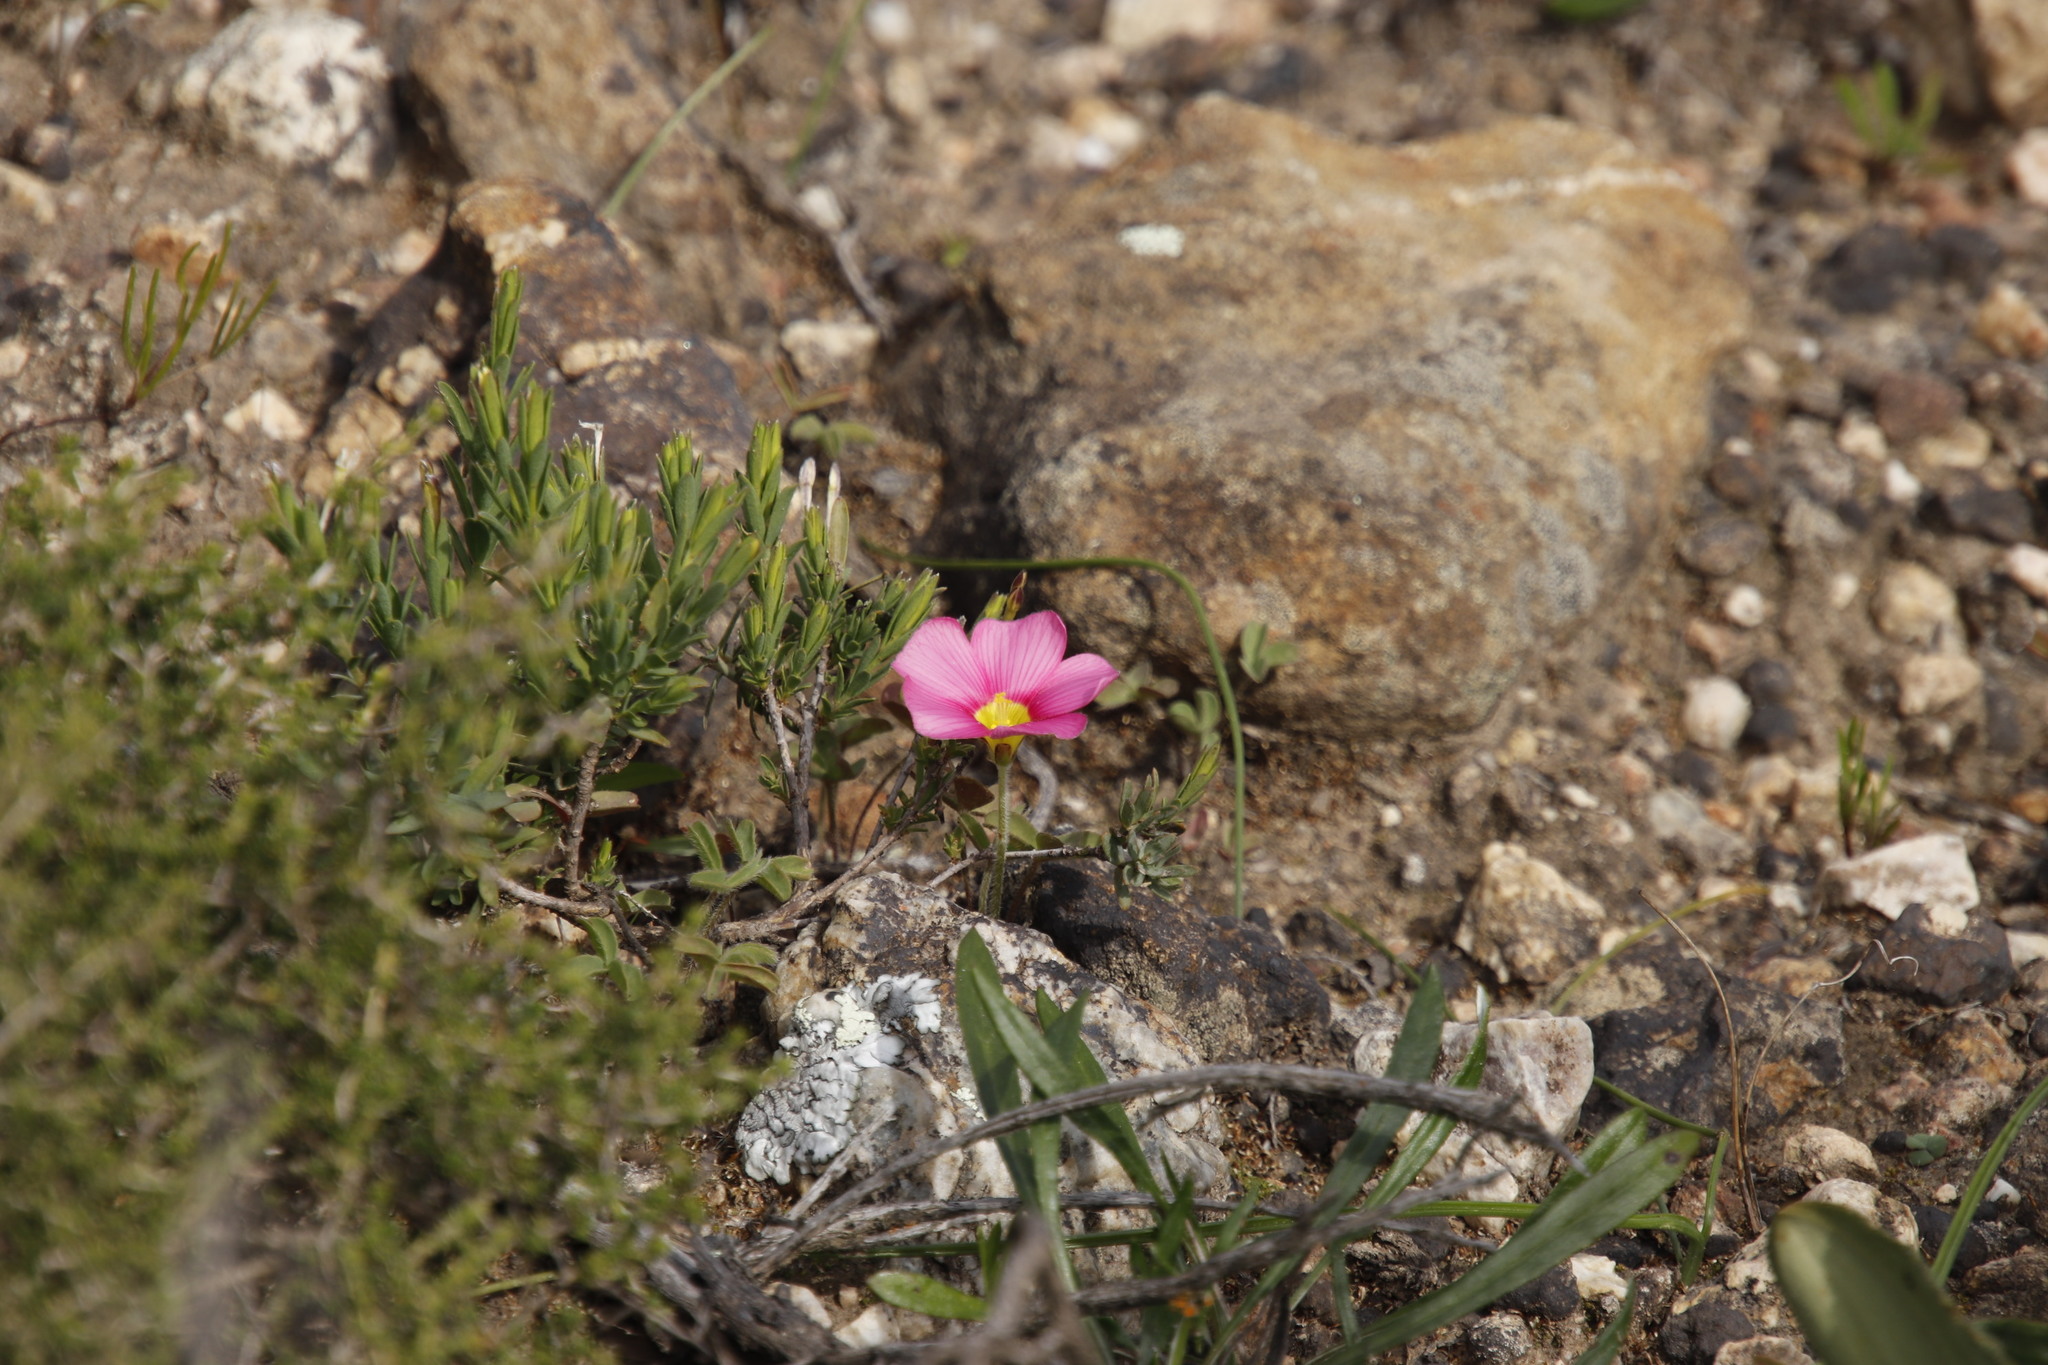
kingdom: Plantae
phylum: Tracheophyta
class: Magnoliopsida
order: Oxalidales
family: Oxalidaceae
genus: Oxalis
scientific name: Oxalis obtusa
